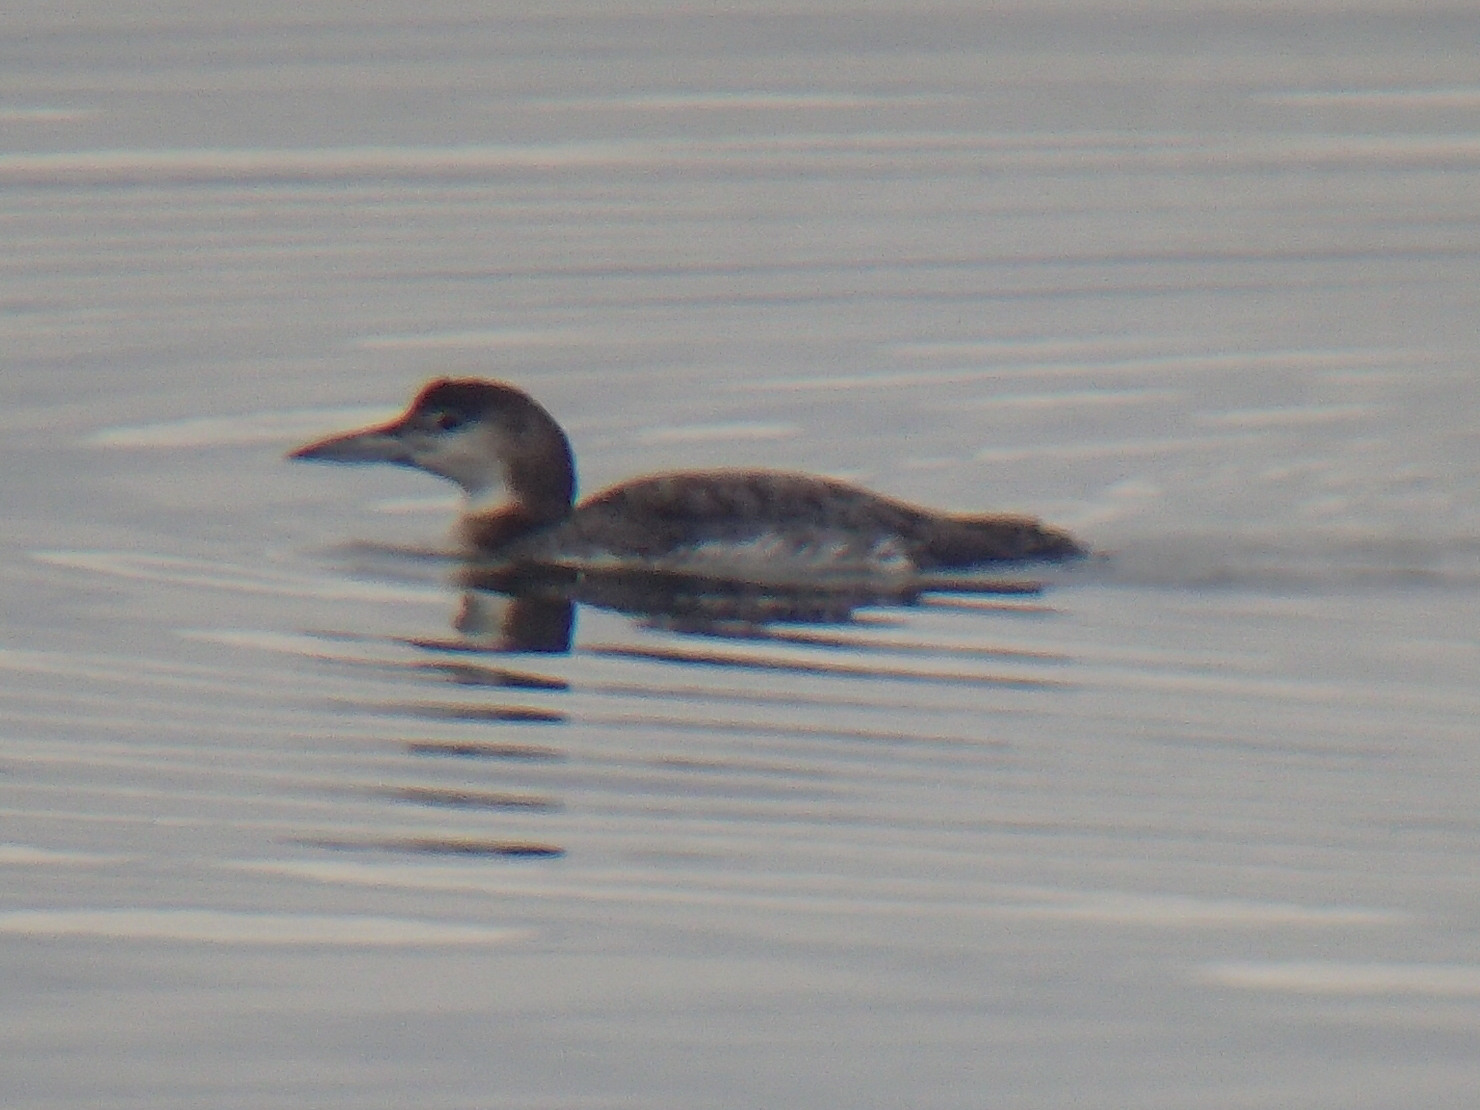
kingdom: Animalia
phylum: Chordata
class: Aves
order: Gaviiformes
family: Gaviidae
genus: Gavia
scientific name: Gavia immer
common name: Common loon
